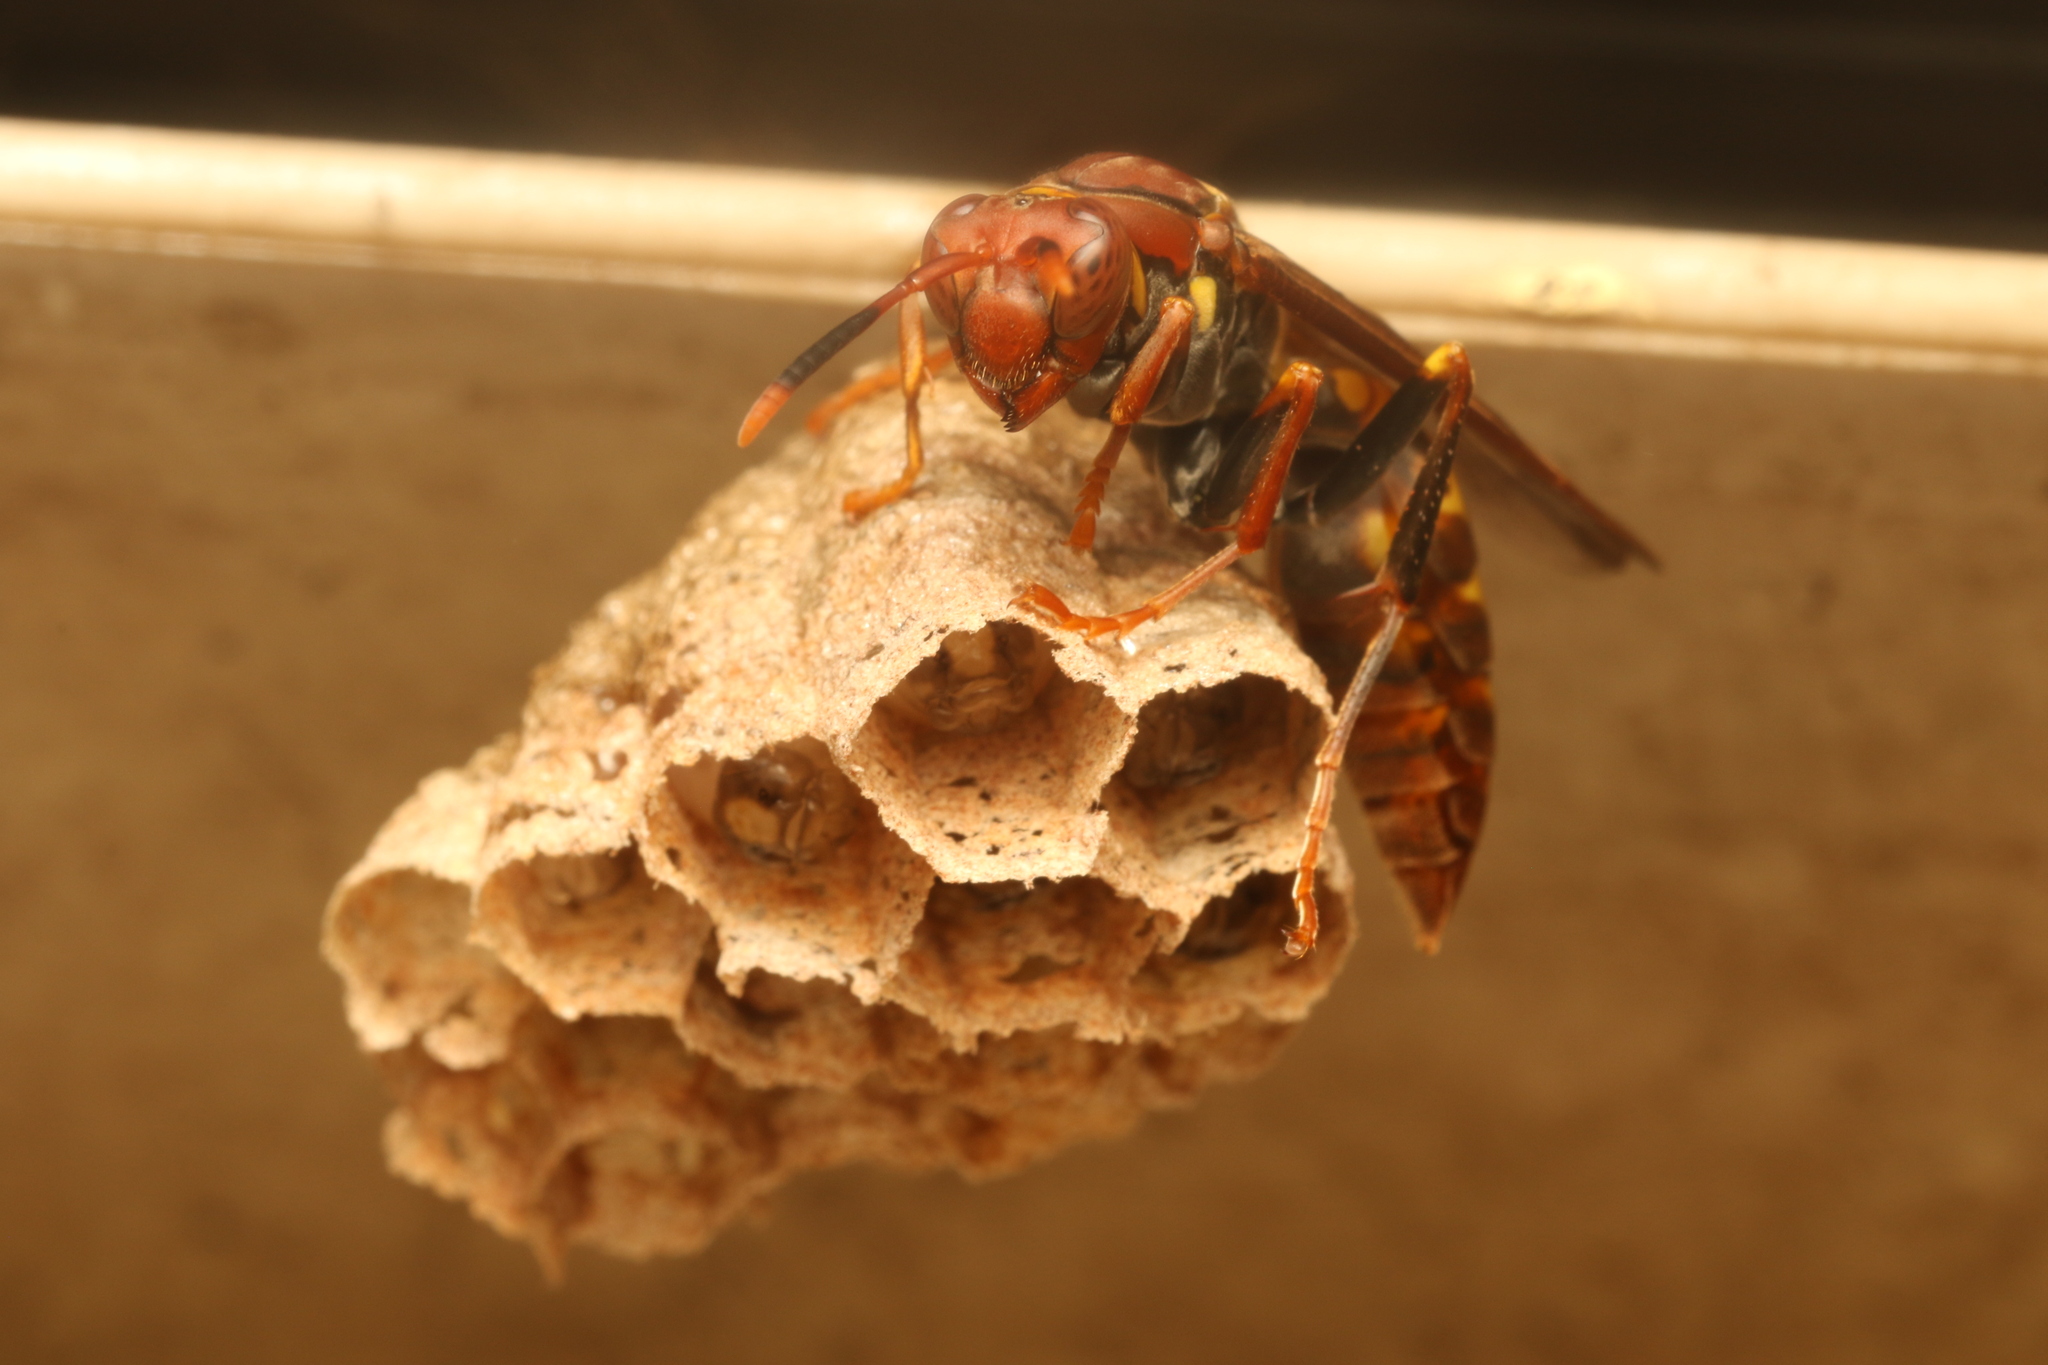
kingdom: Animalia
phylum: Arthropoda
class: Insecta
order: Hymenoptera
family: Eumenidae
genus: Polistes
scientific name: Polistes versicolor
